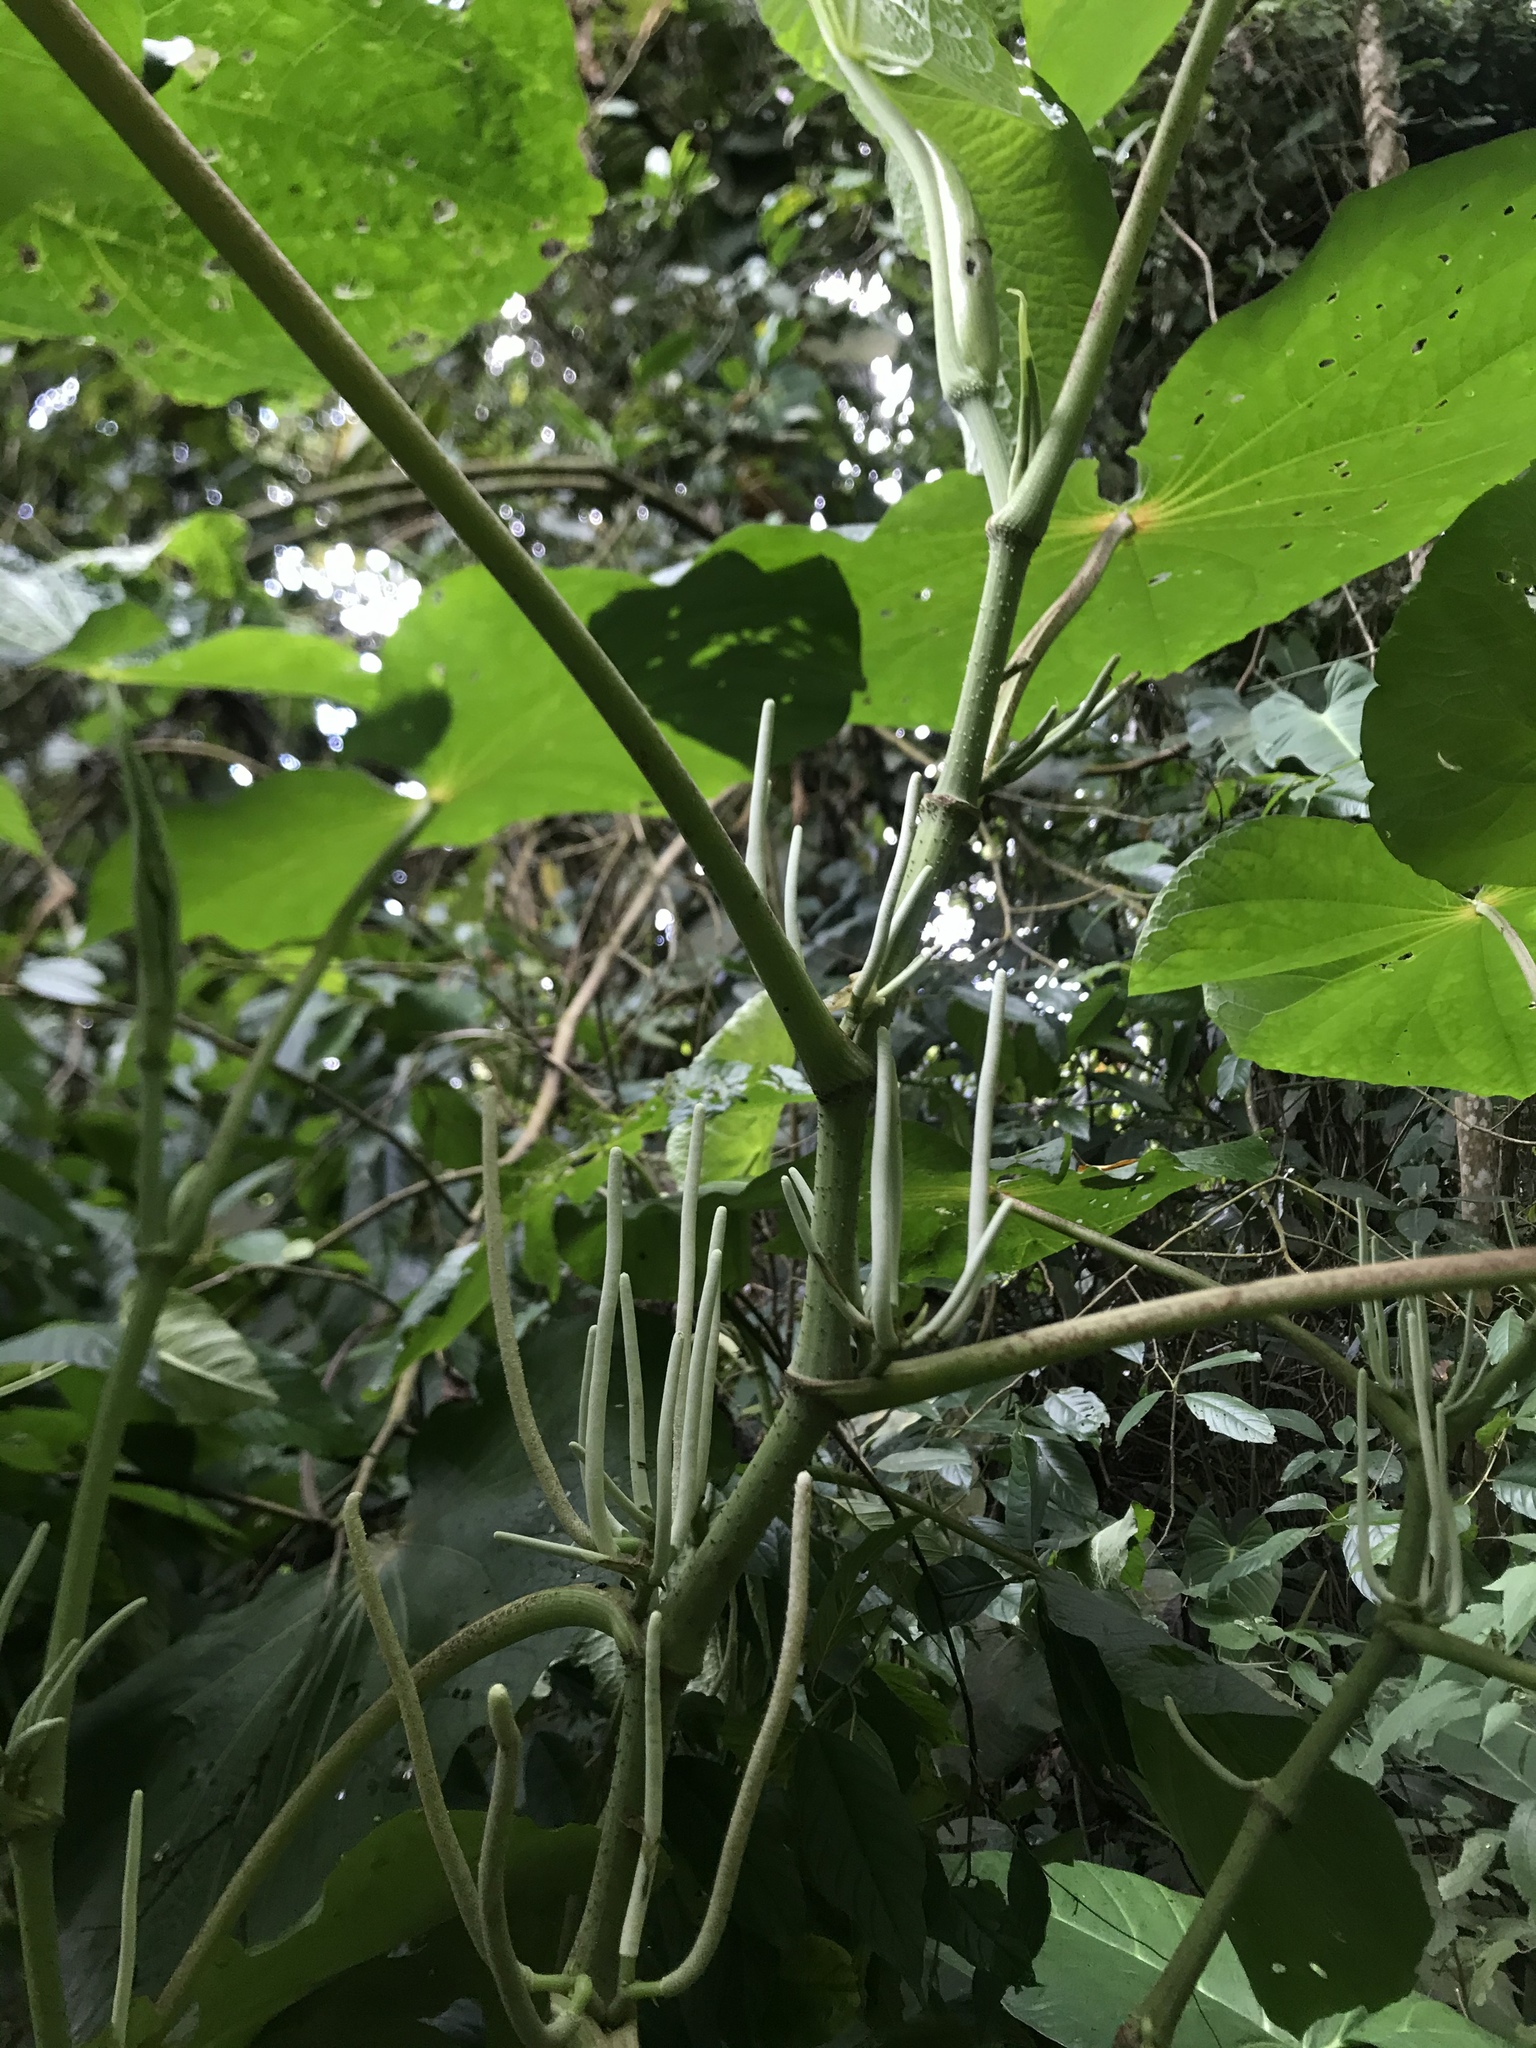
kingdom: Plantae
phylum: Tracheophyta
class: Magnoliopsida
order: Piperales
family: Piperaceae
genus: Piper
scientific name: Piper umbellatum
